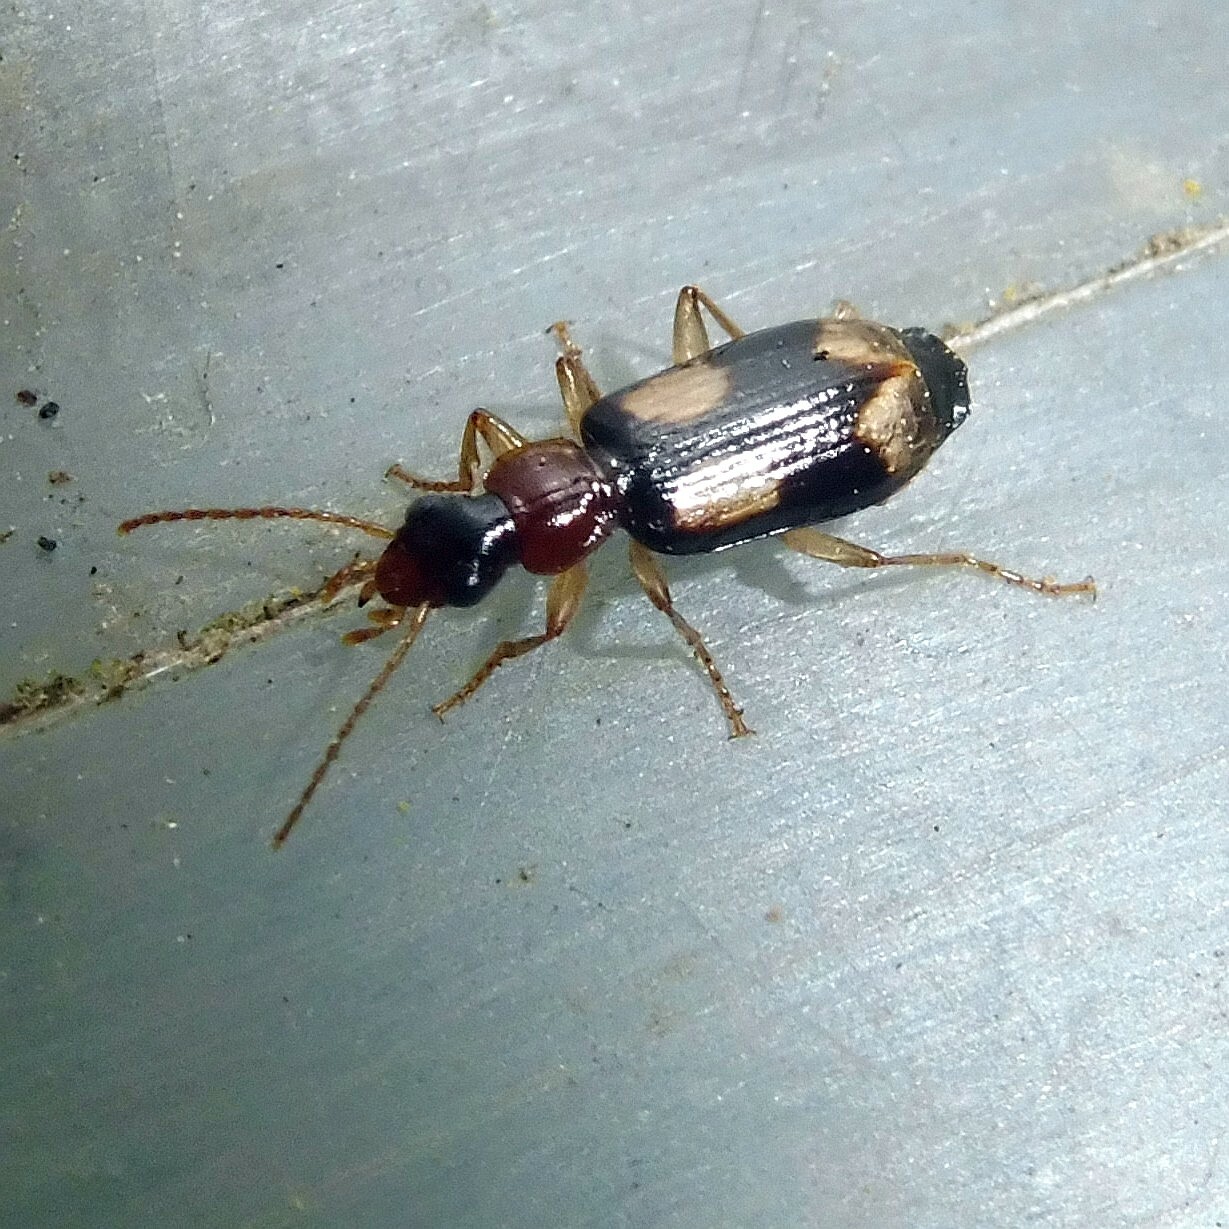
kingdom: Animalia
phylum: Arthropoda
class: Insecta
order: Coleoptera
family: Carabidae
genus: Dromius
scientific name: Dromius quadrimaculatus
